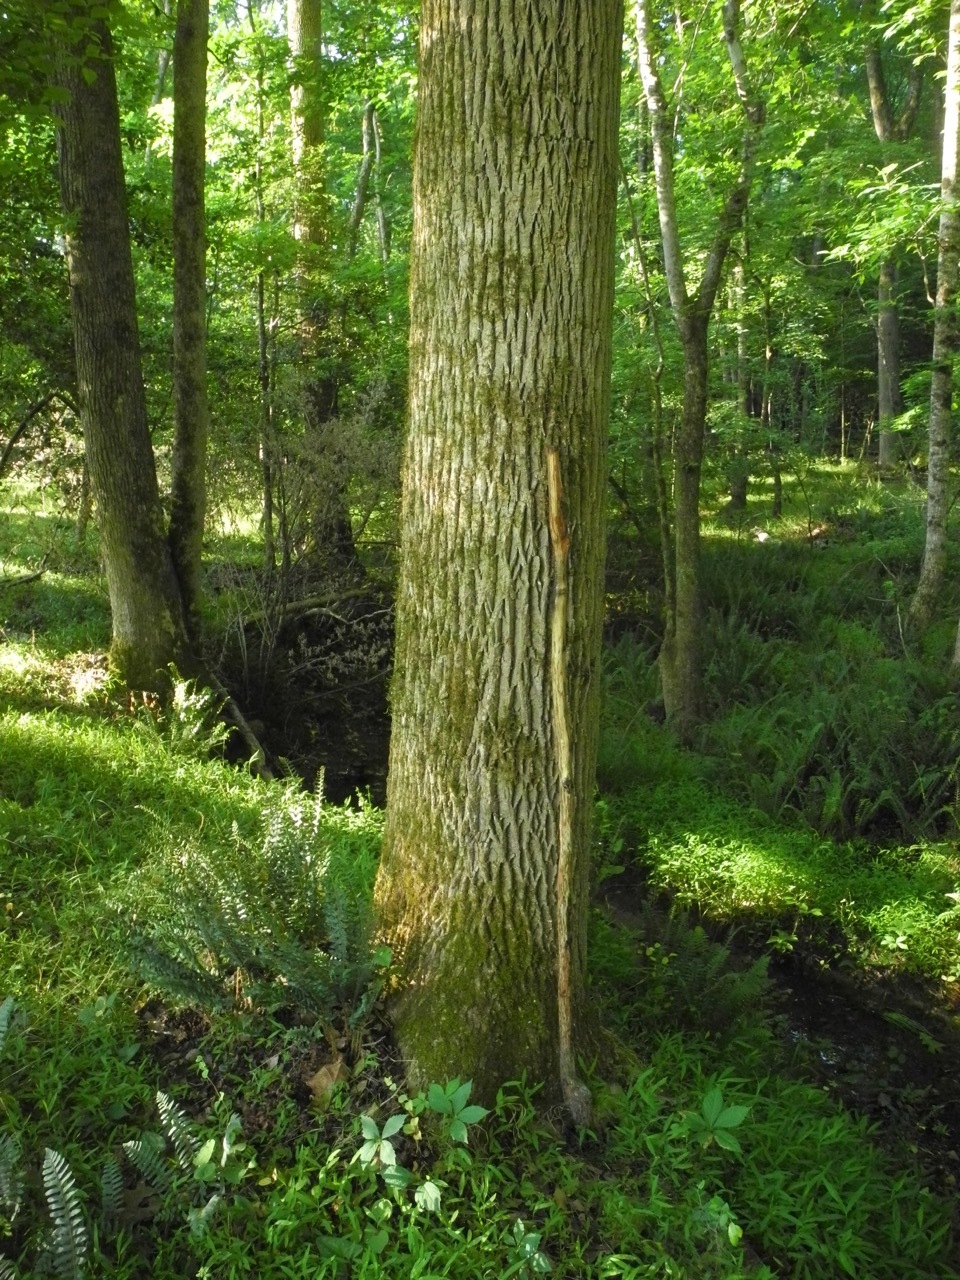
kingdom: Plantae
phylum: Tracheophyta
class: Magnoliopsida
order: Lamiales
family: Oleaceae
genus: Fraxinus
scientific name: Fraxinus americana
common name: White ash
